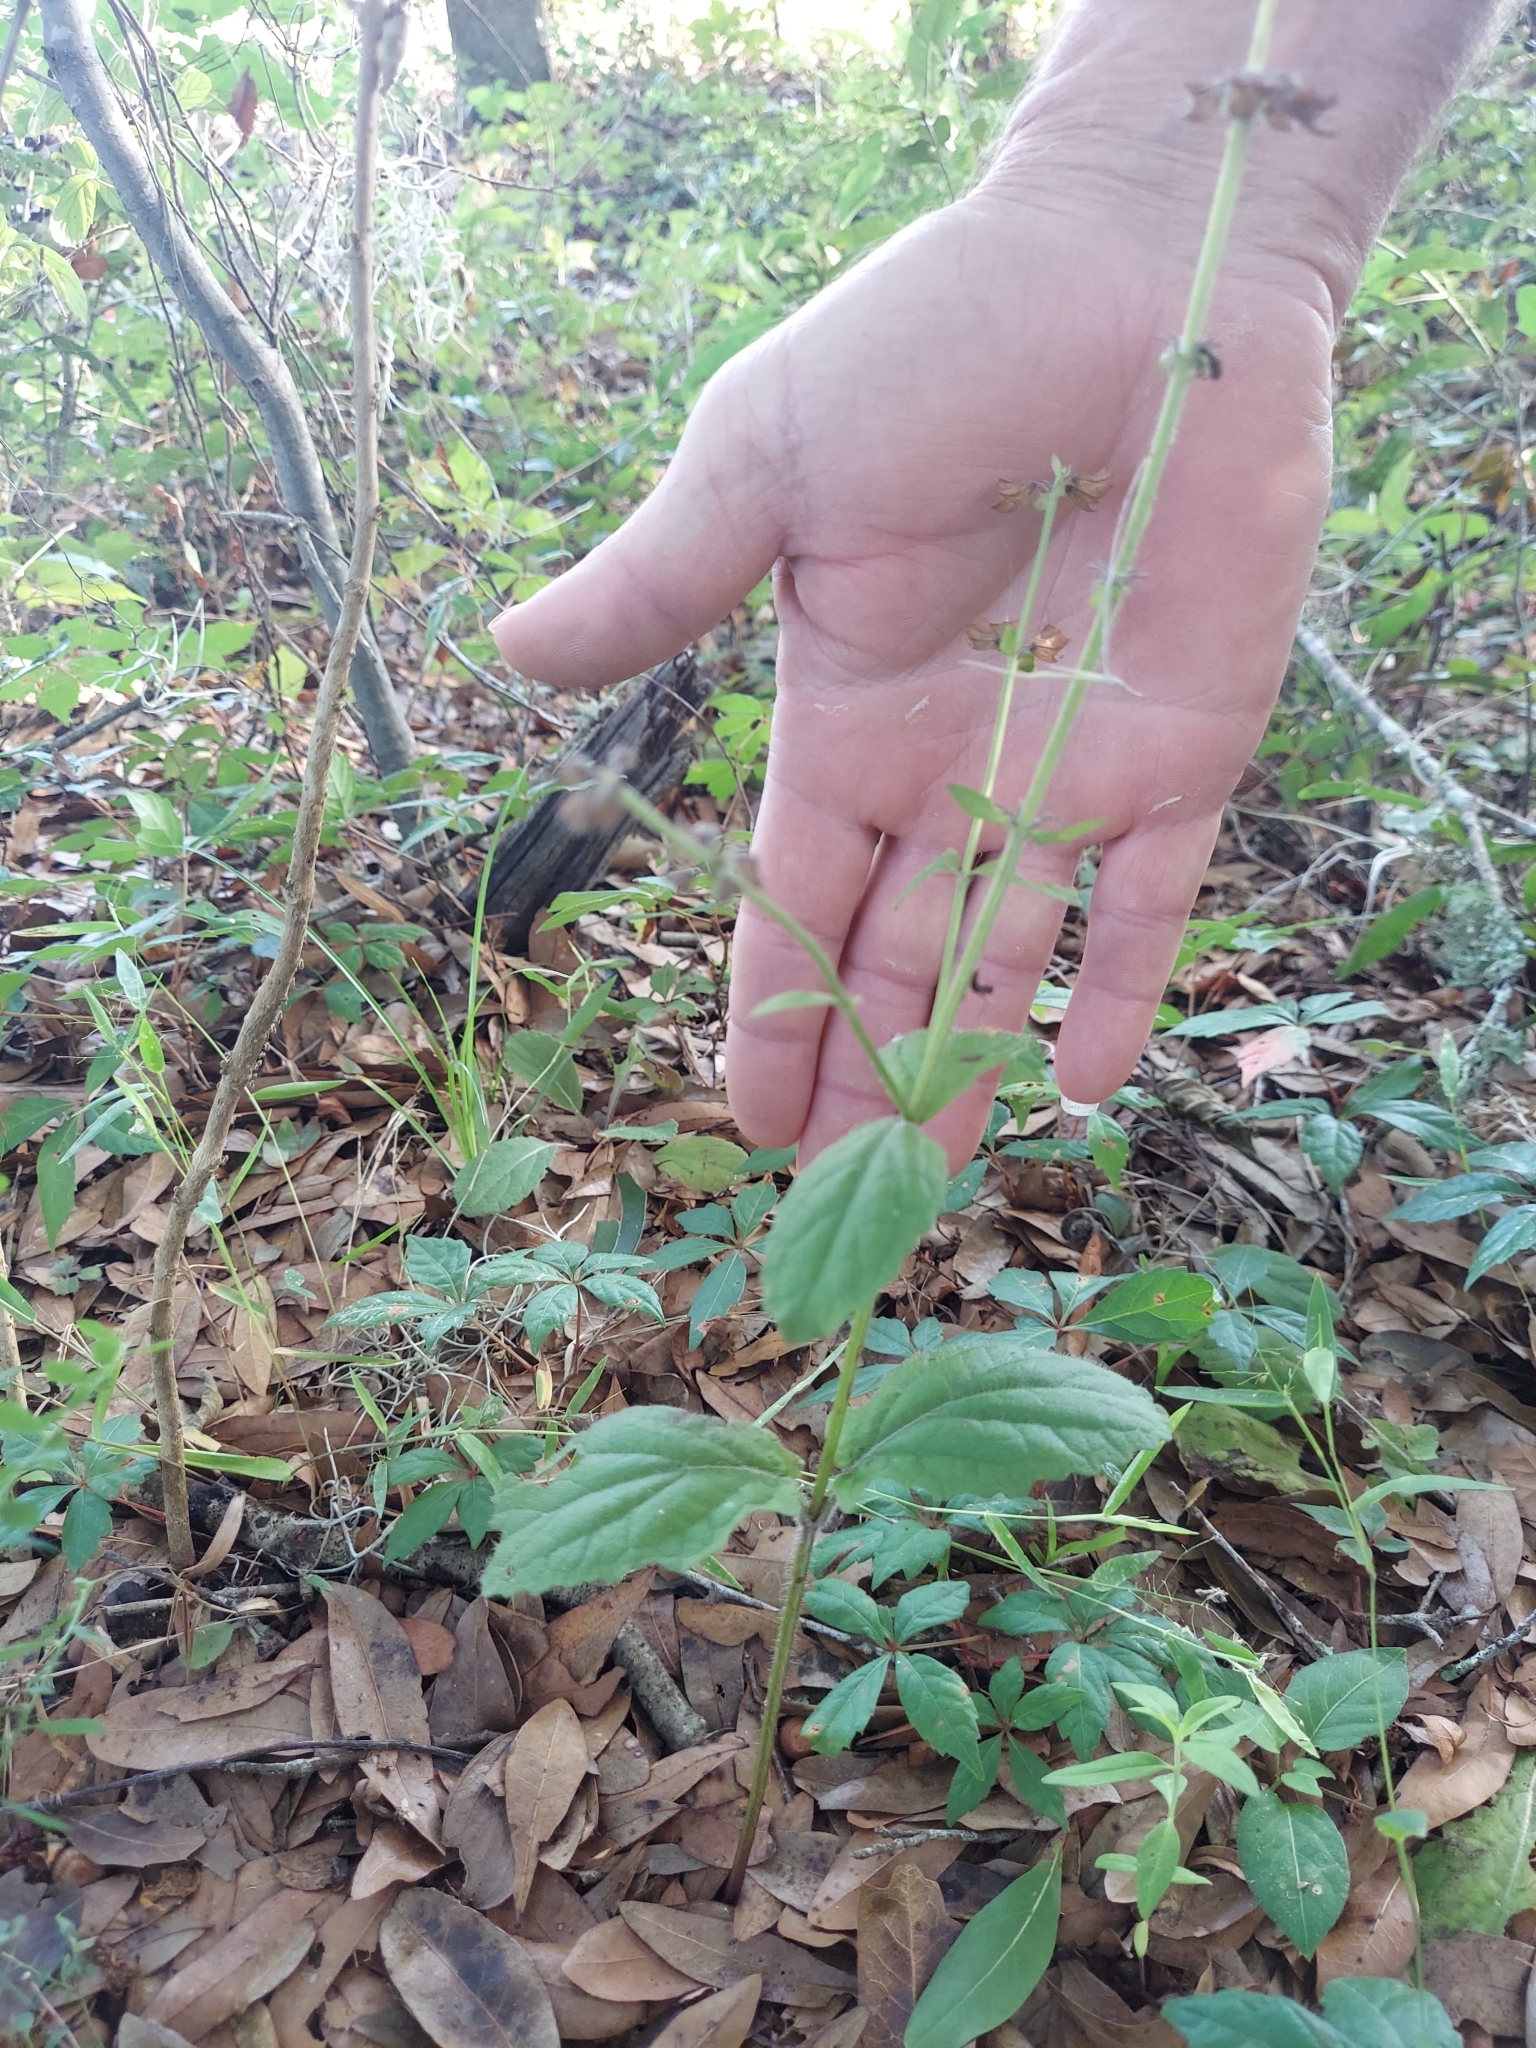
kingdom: Plantae
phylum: Tracheophyta
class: Magnoliopsida
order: Lamiales
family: Lamiaceae
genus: Salvia
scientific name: Salvia lyrata
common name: Cancerweed
